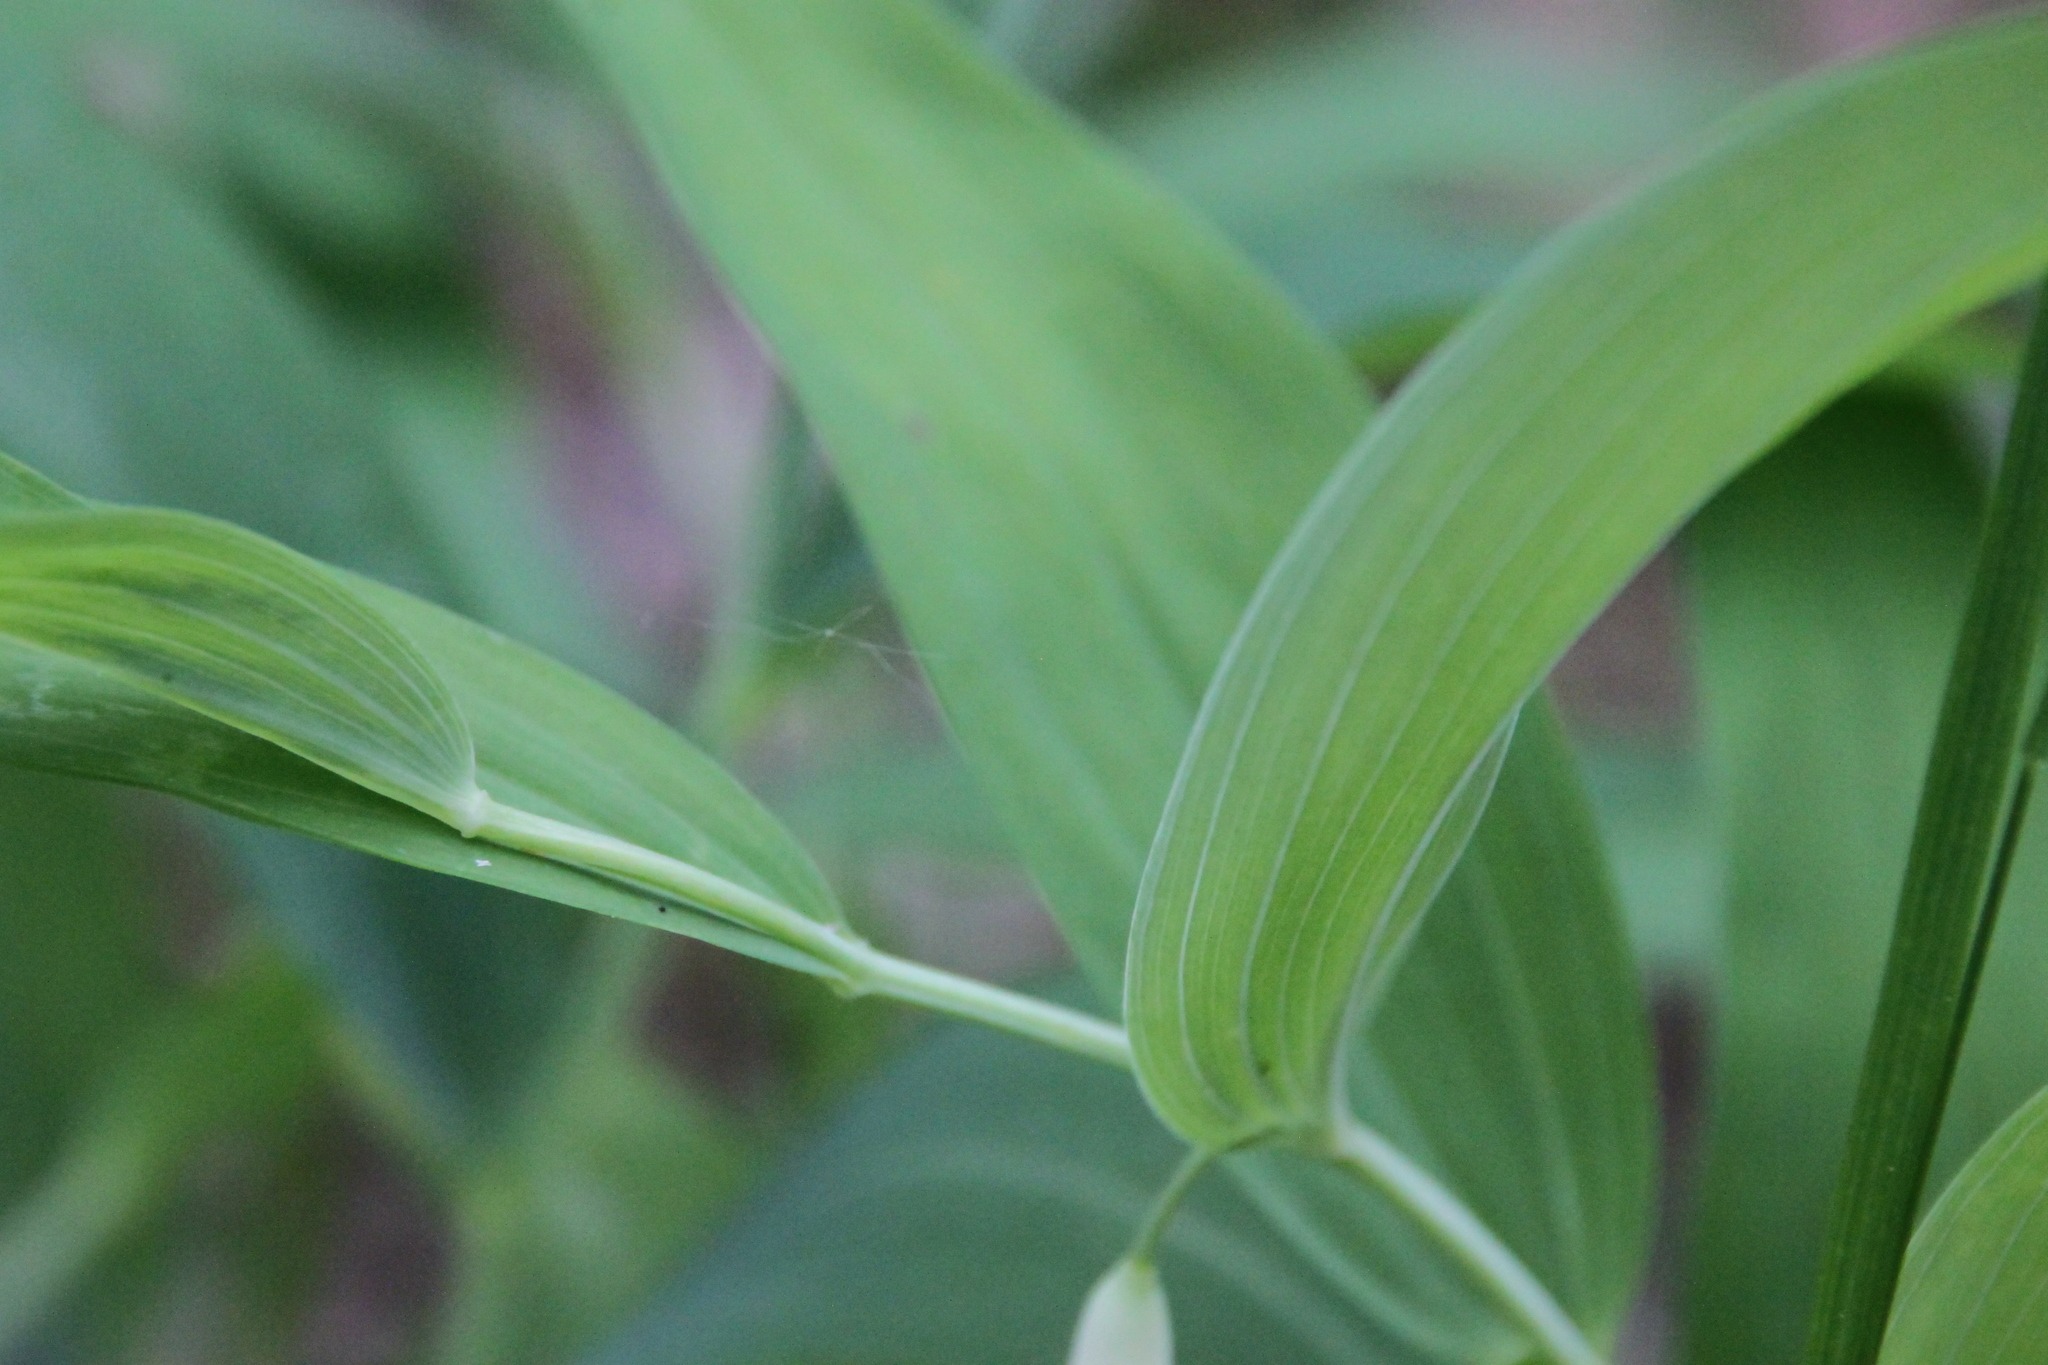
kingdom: Plantae
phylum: Tracheophyta
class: Liliopsida
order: Asparagales
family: Asparagaceae
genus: Polygonatum
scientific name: Polygonatum odoratum
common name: Angular solomon's-seal
